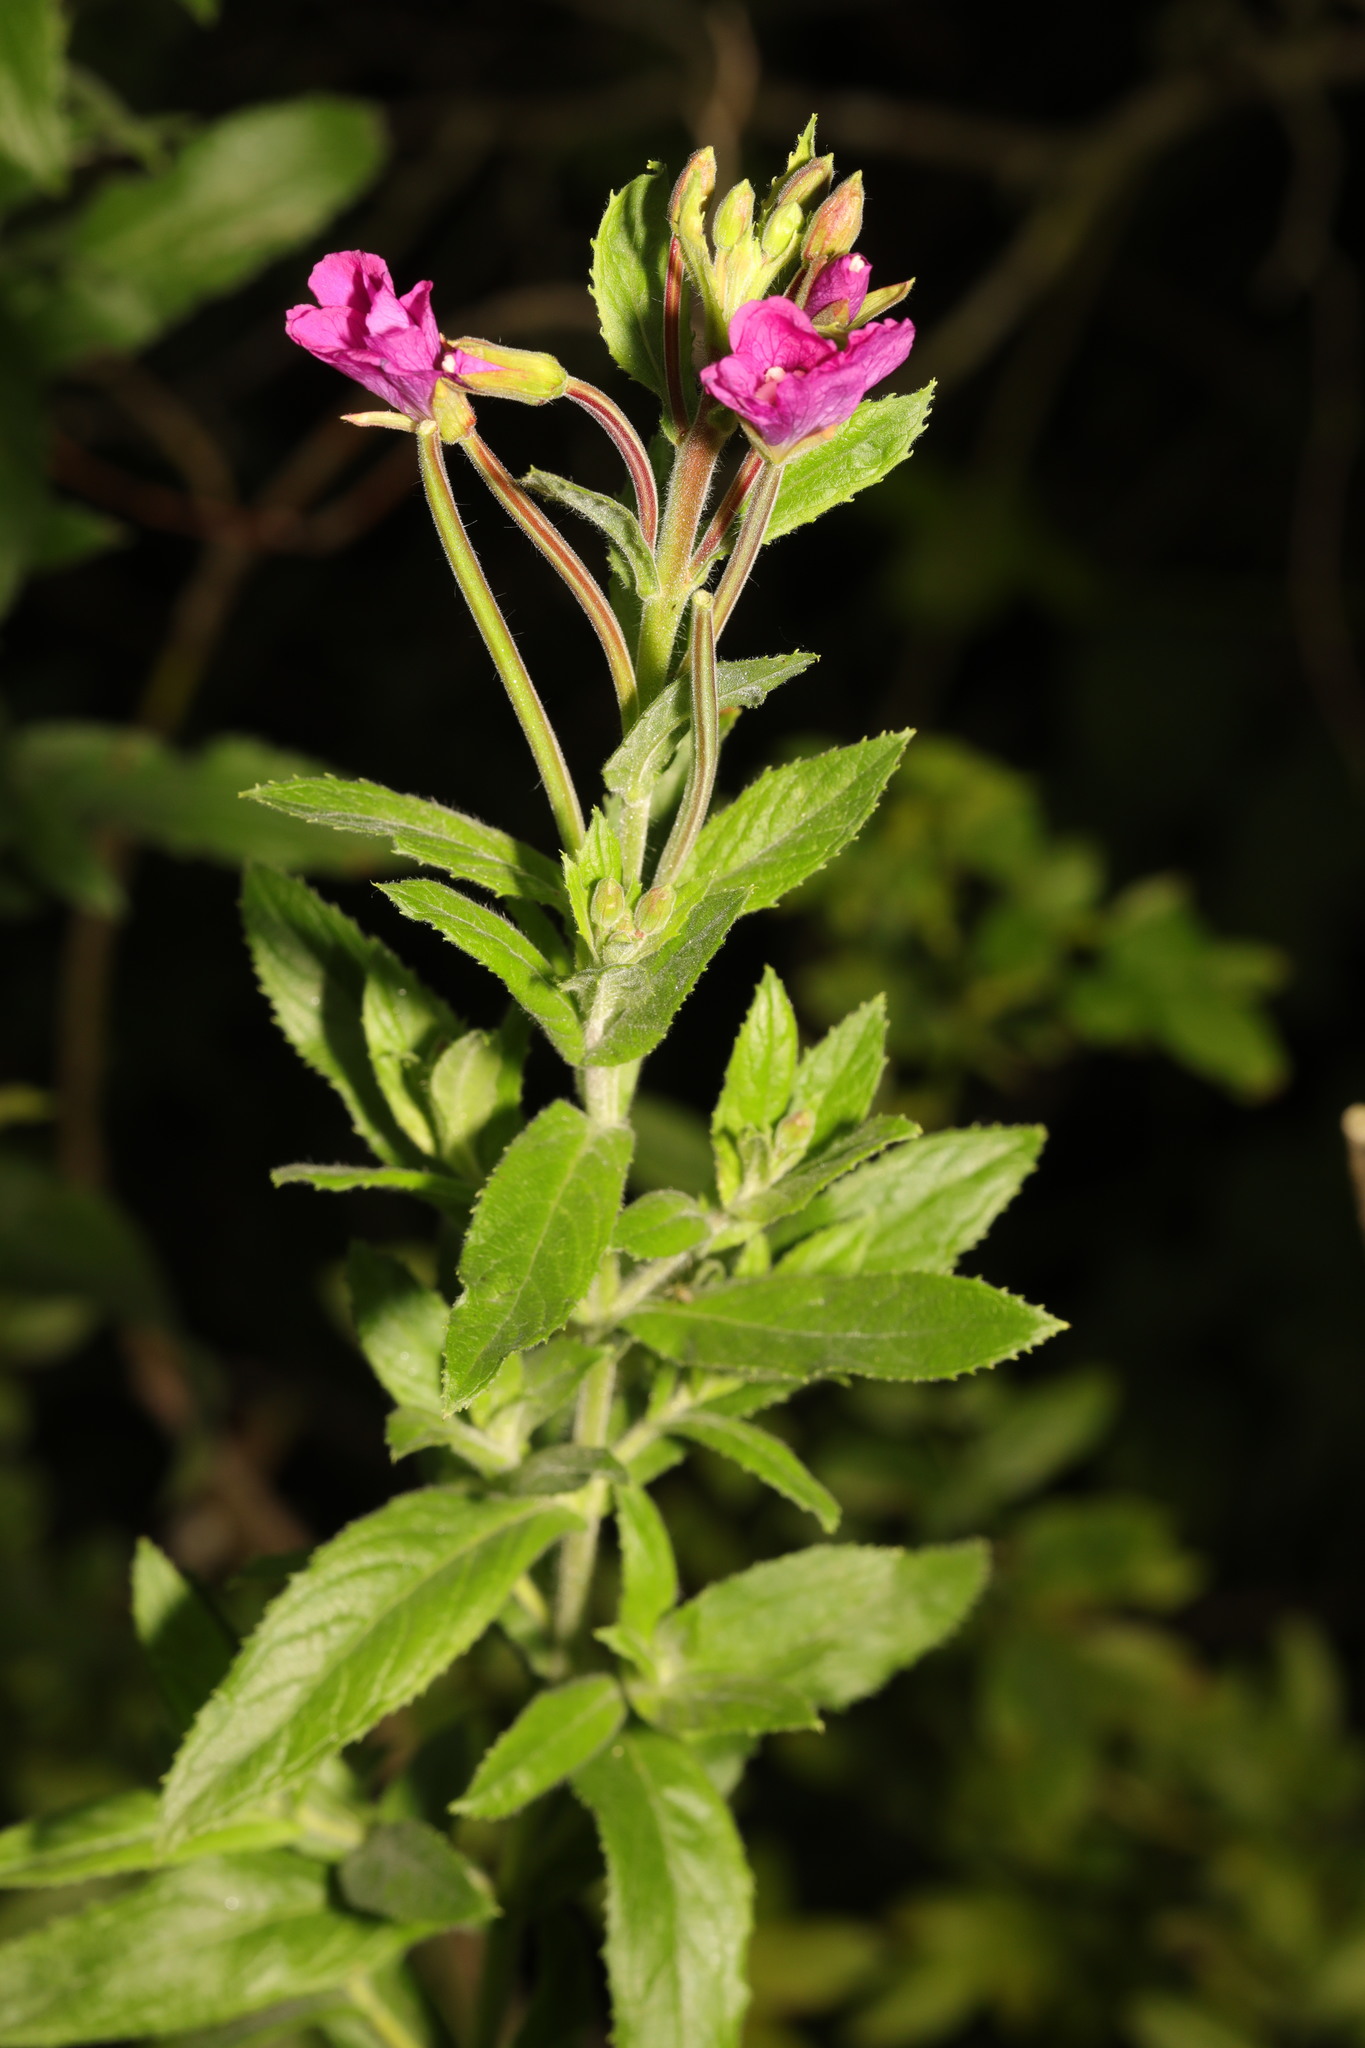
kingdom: Plantae
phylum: Tracheophyta
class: Magnoliopsida
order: Myrtales
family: Onagraceae
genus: Epilobium
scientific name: Epilobium hirsutum
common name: Great willowherb
